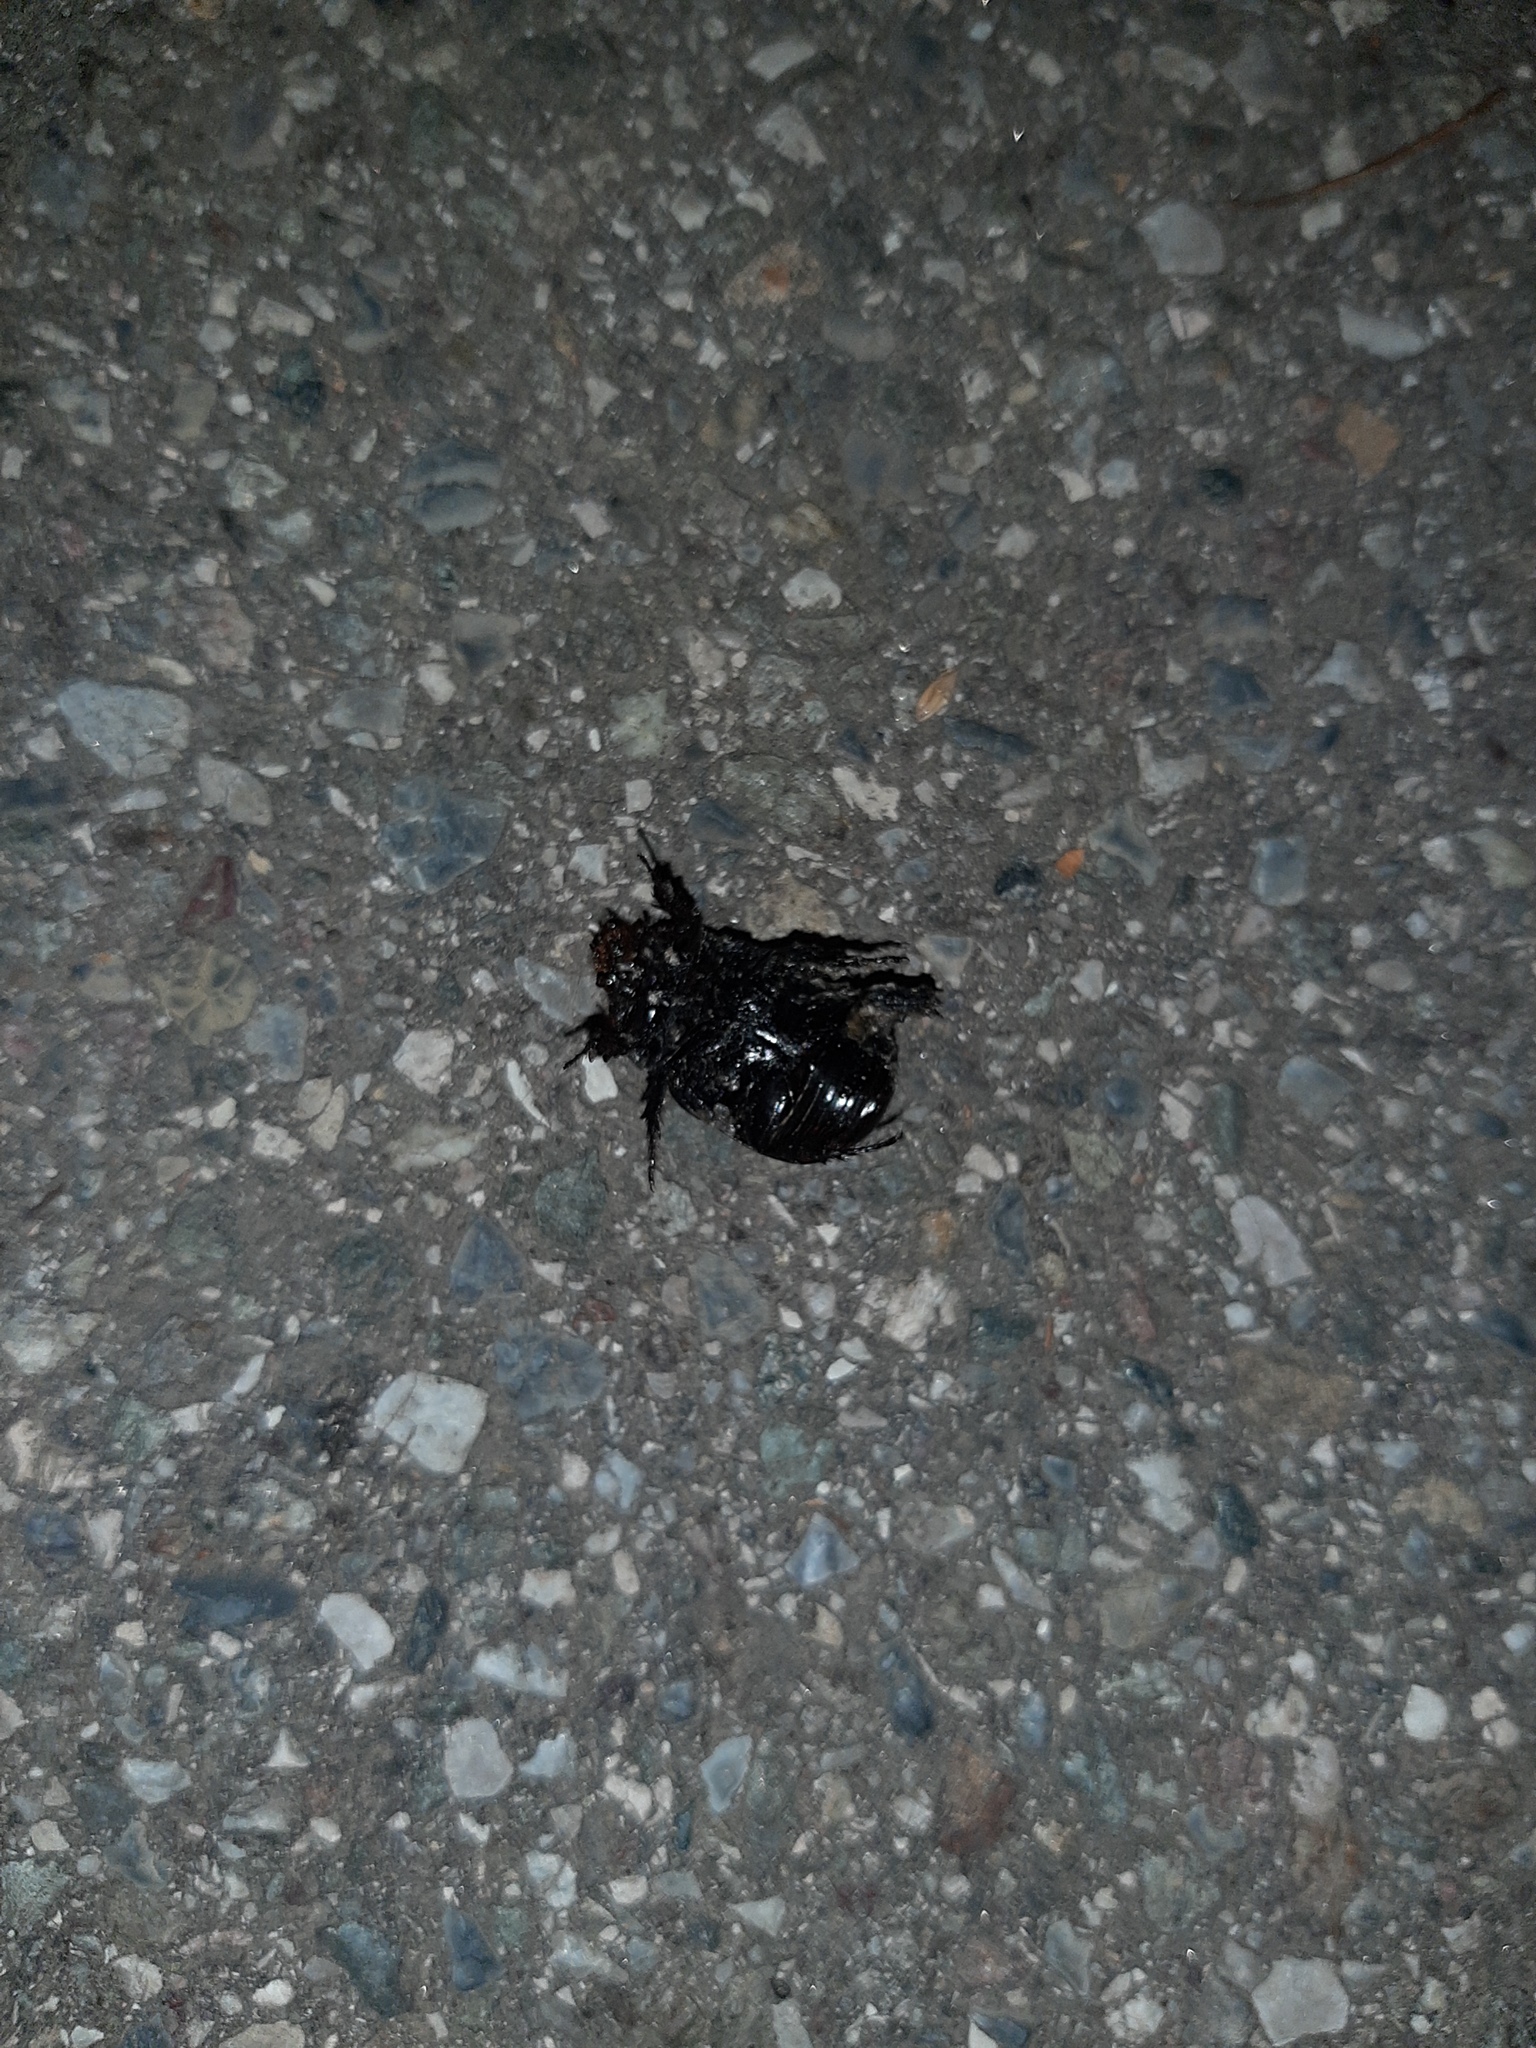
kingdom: Animalia
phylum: Arthropoda
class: Insecta
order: Coleoptera
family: Scarabaeidae
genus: Pentodon
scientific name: Pentodon bidens
